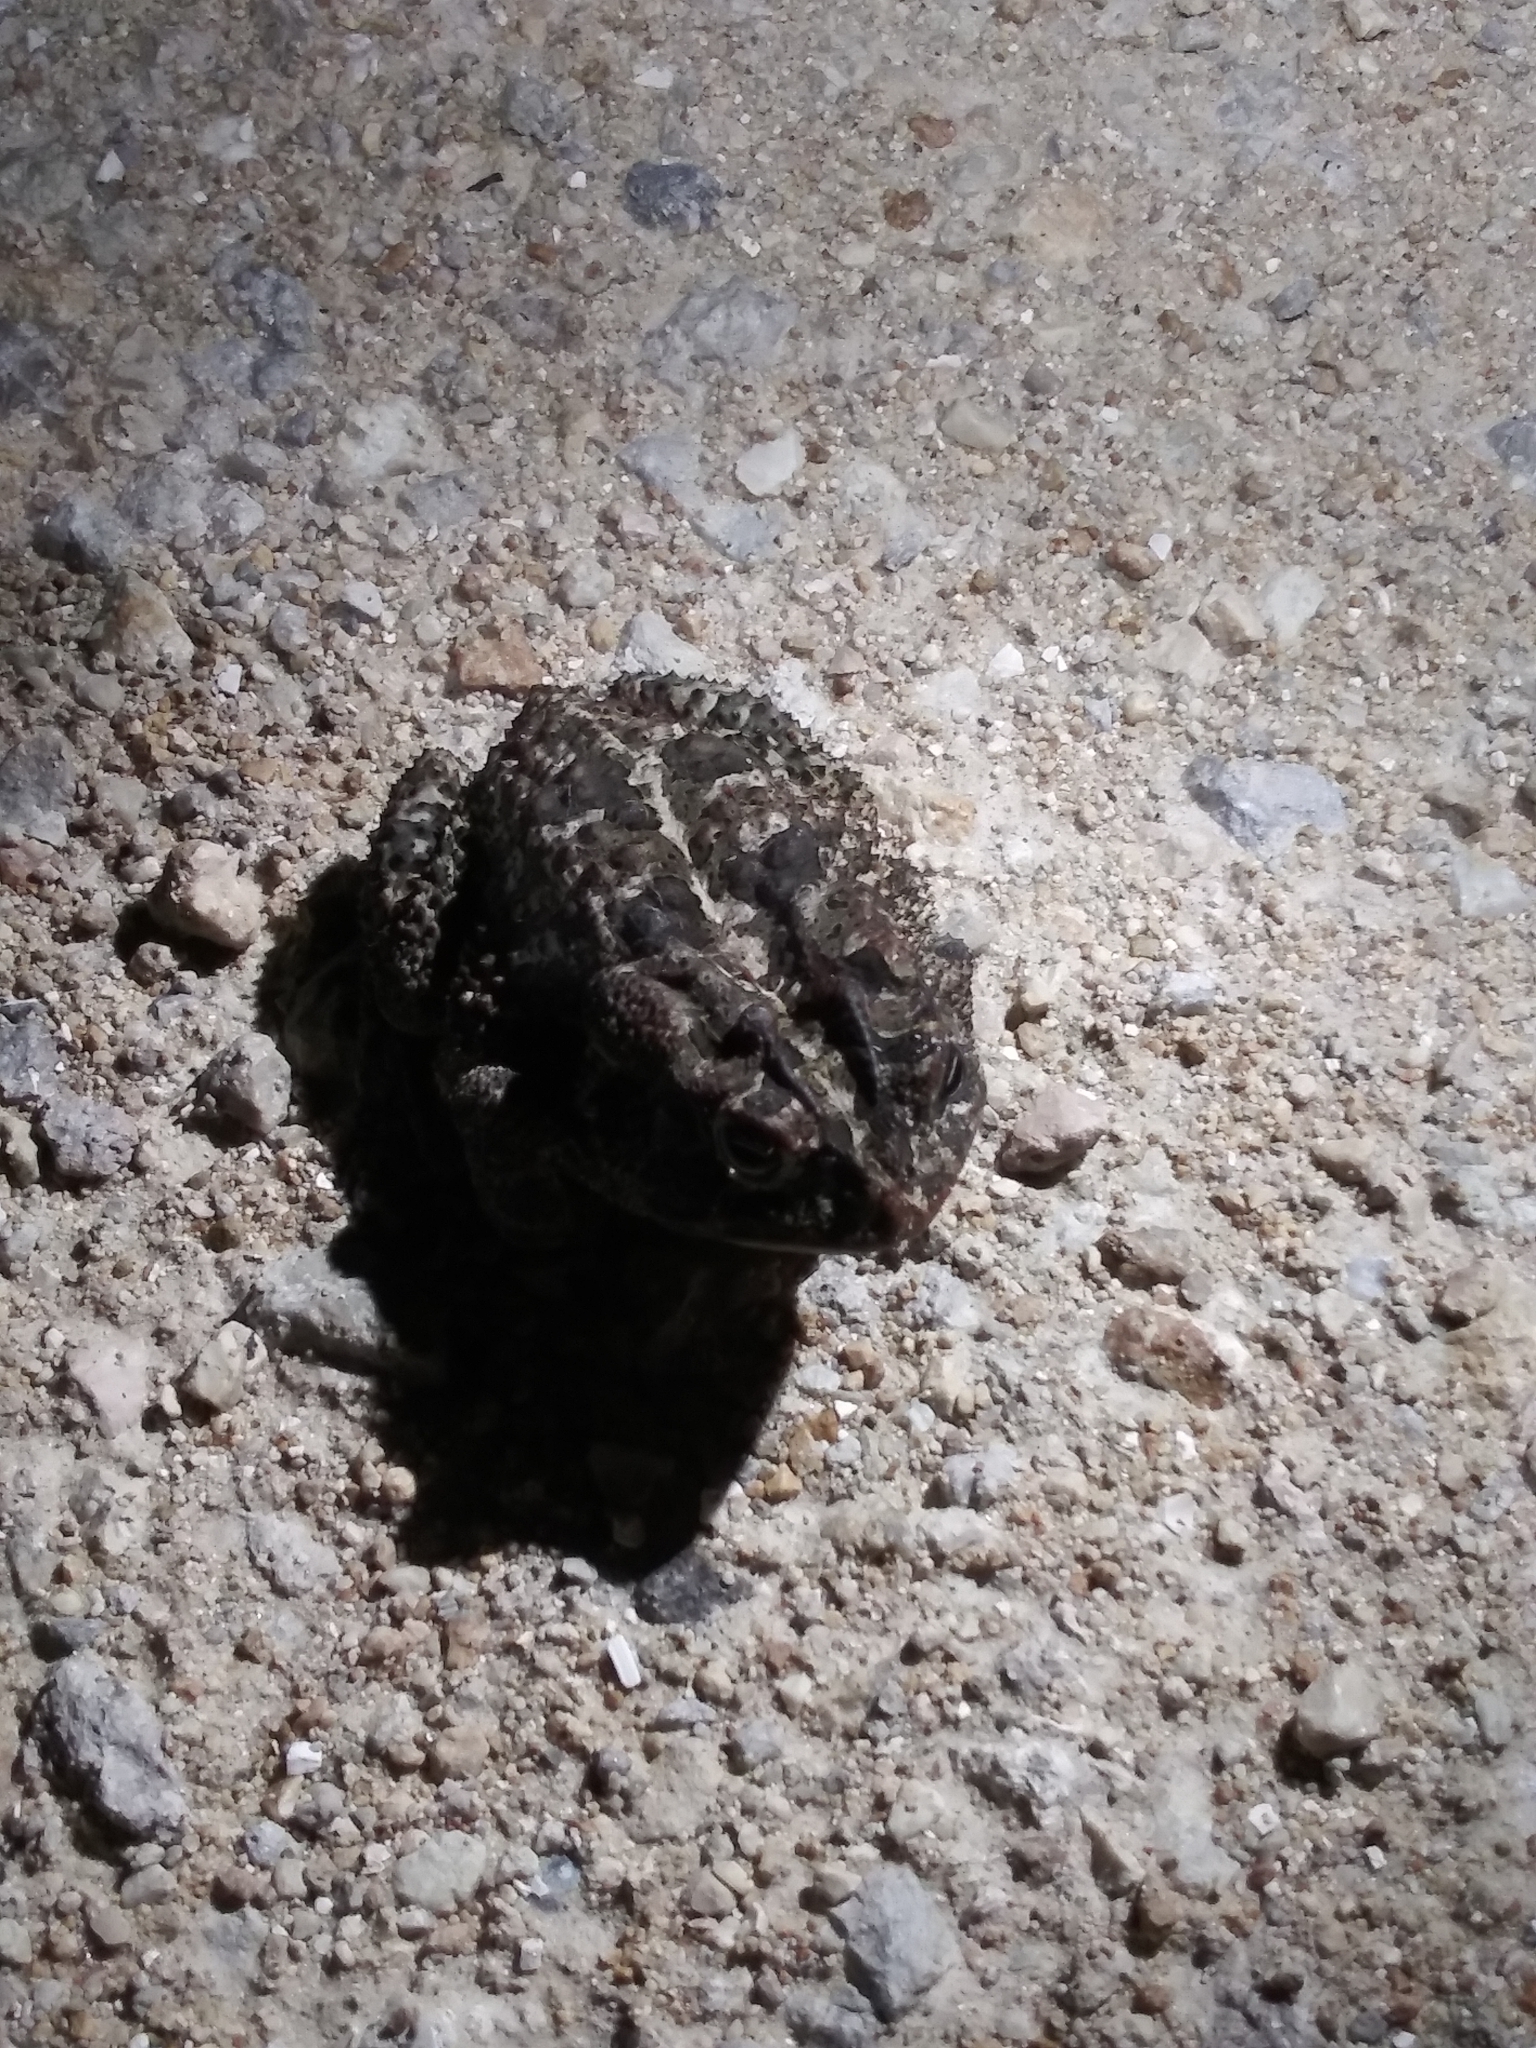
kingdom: Animalia
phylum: Chordata
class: Amphibia
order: Anura
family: Bufonidae
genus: Anaxyrus
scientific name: Anaxyrus terrestris
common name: Southern toad
